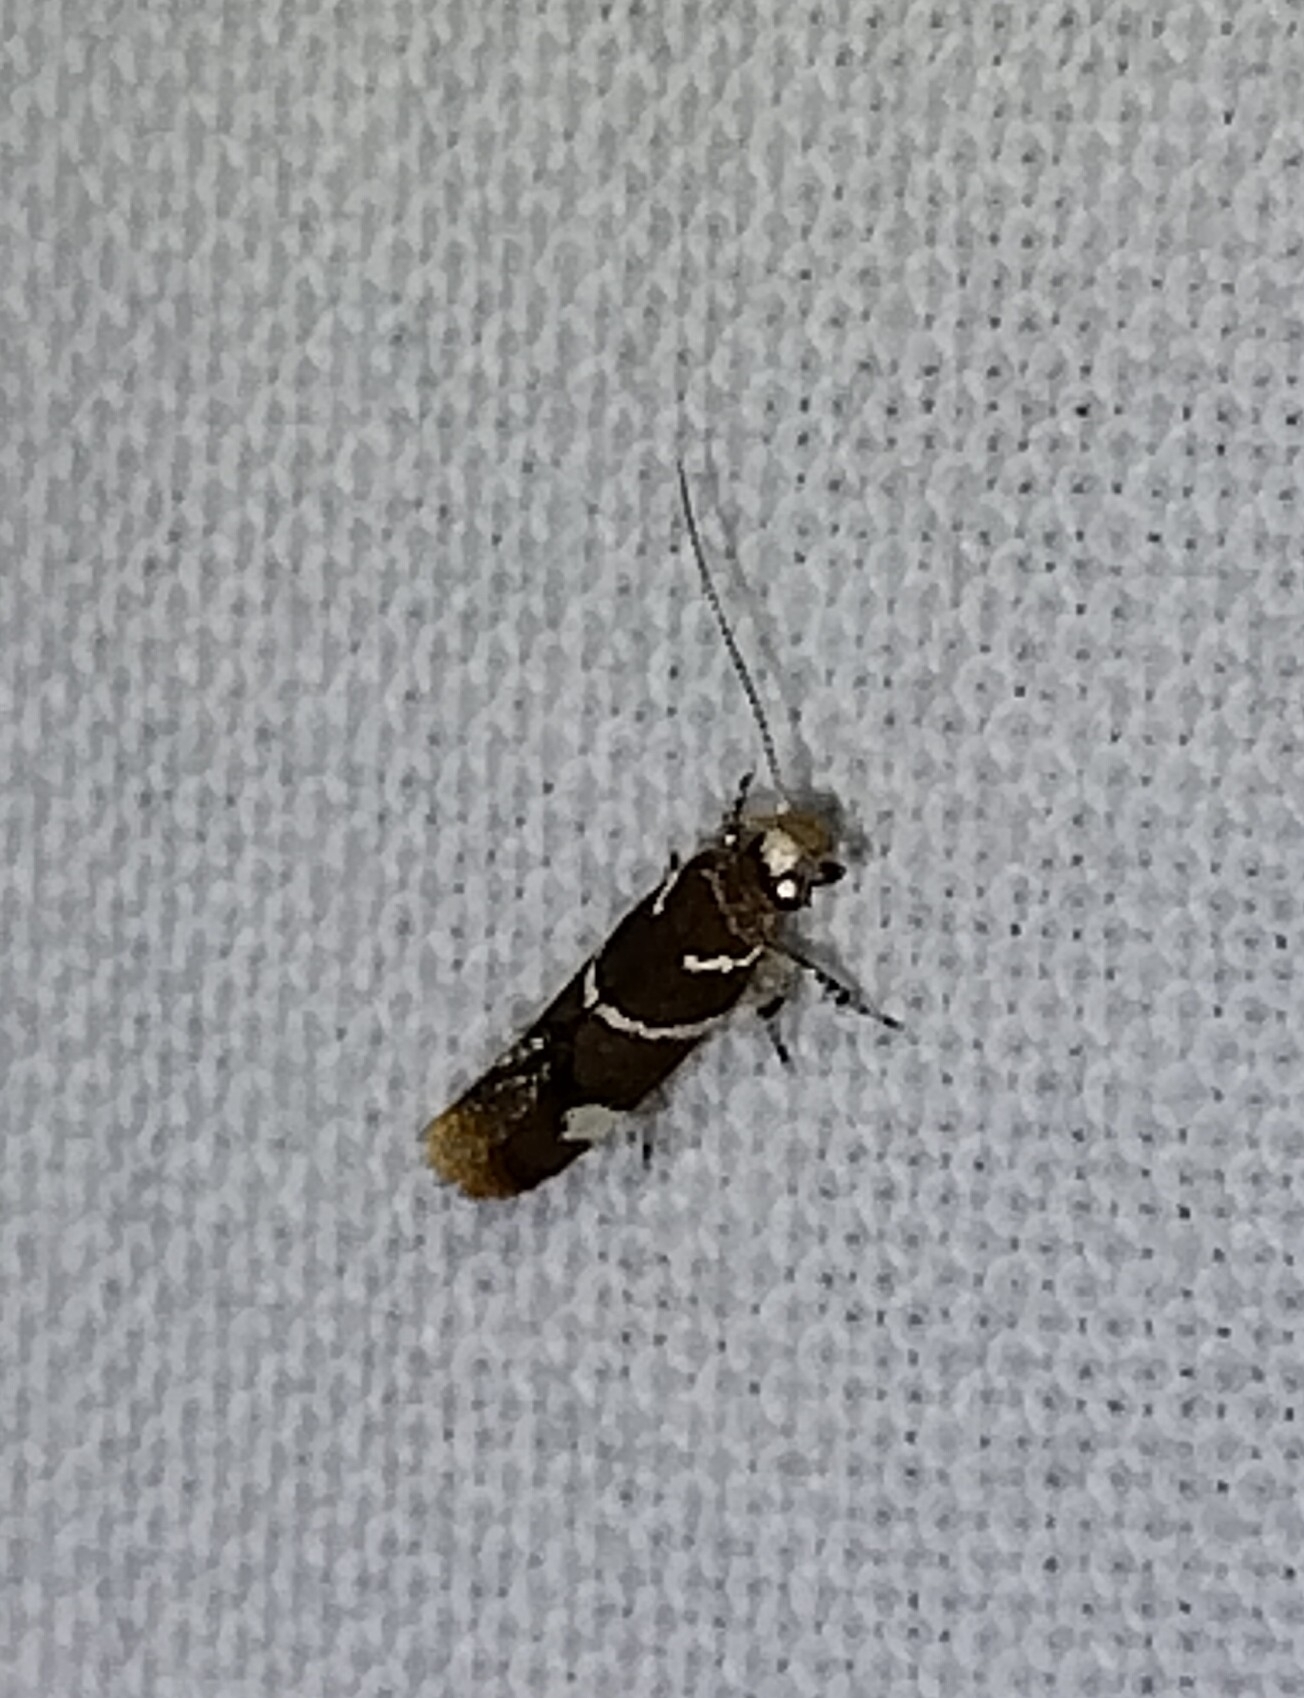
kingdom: Animalia
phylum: Arthropoda
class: Insecta
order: Lepidoptera
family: Oecophoridae
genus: Promalactis
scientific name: Promalactis suzukiella
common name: Moth
